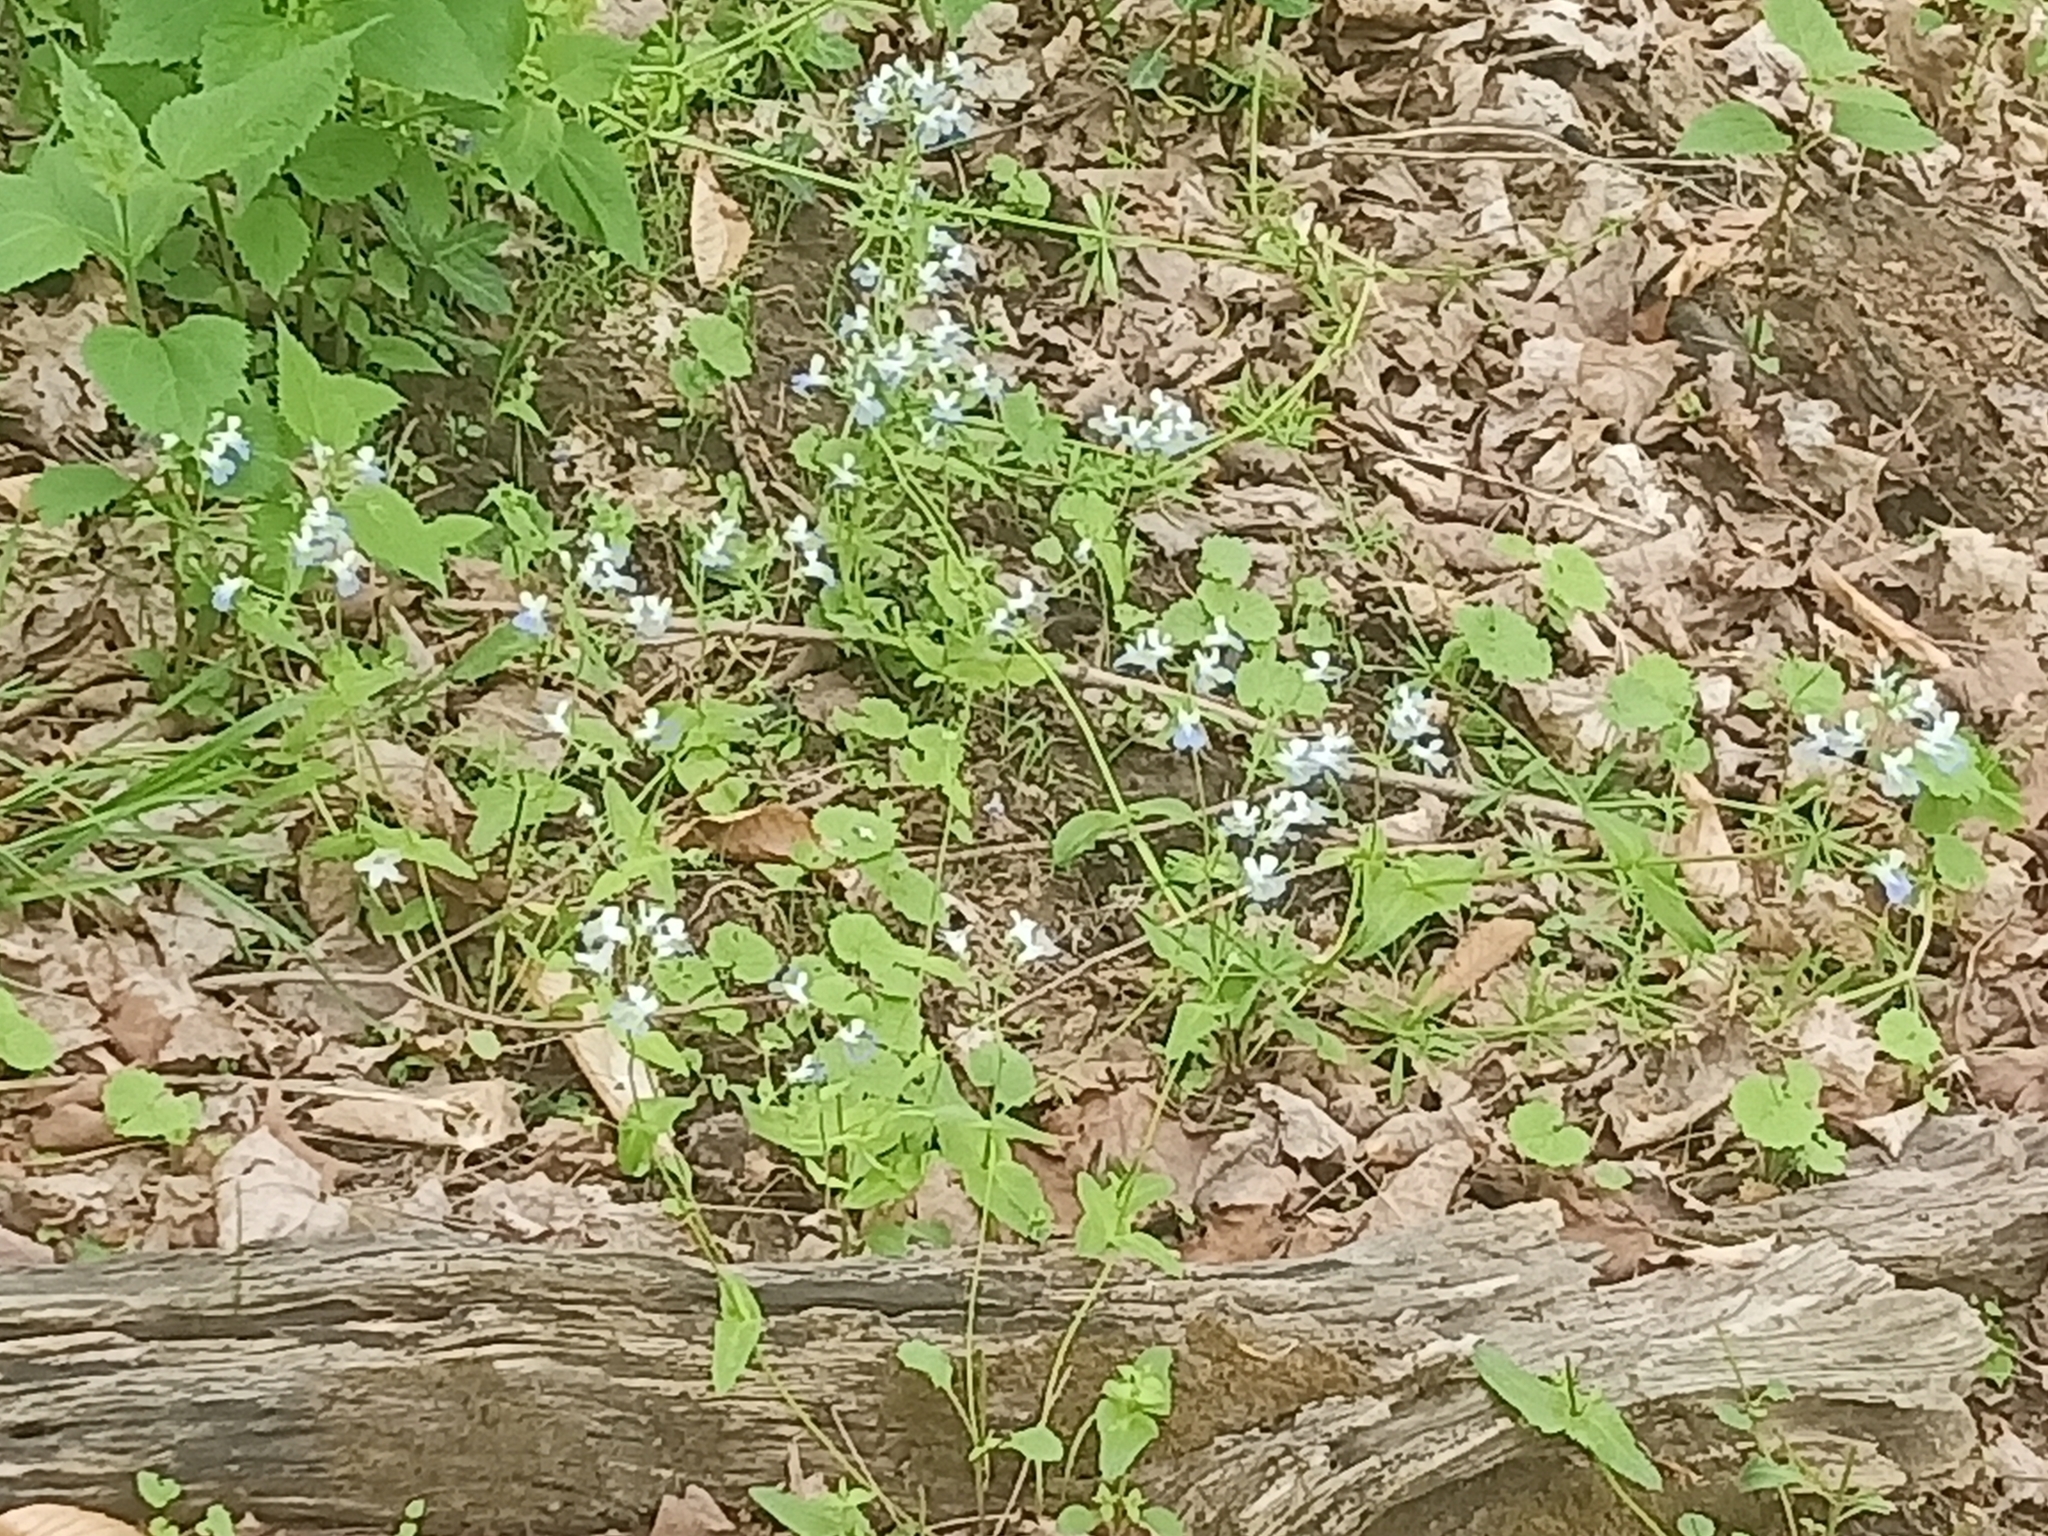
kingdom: Plantae
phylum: Tracheophyta
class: Magnoliopsida
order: Lamiales
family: Plantaginaceae
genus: Collinsia
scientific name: Collinsia verna
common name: Broad-leaved collinsia
